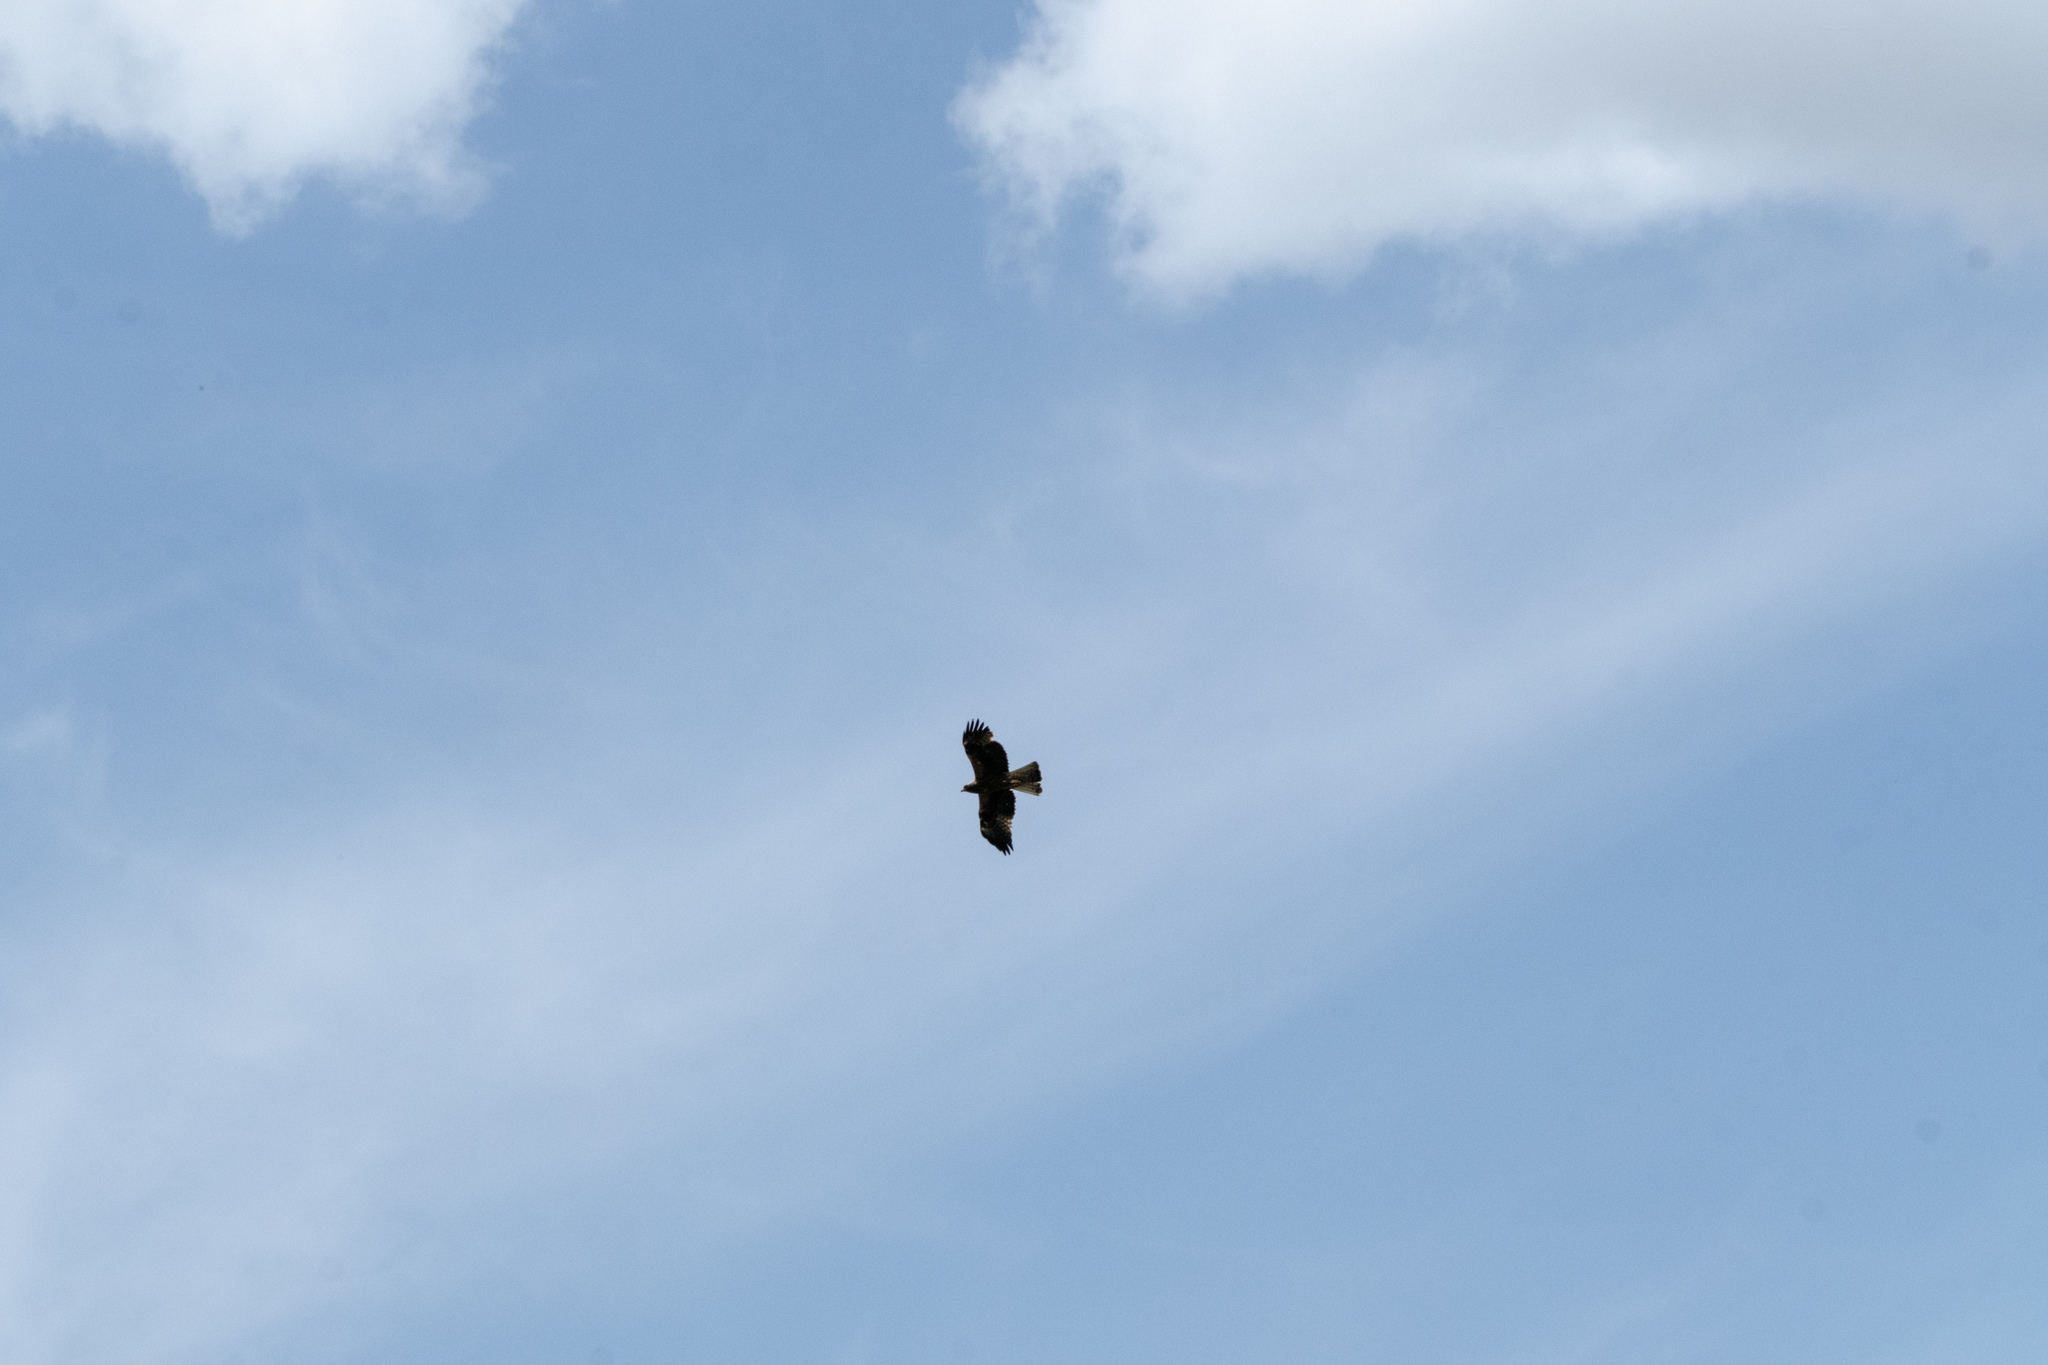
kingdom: Animalia
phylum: Chordata
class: Aves
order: Accipitriformes
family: Accipitridae
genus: Hieraaetus
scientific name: Hieraaetus pennatus
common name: Booted eagle
